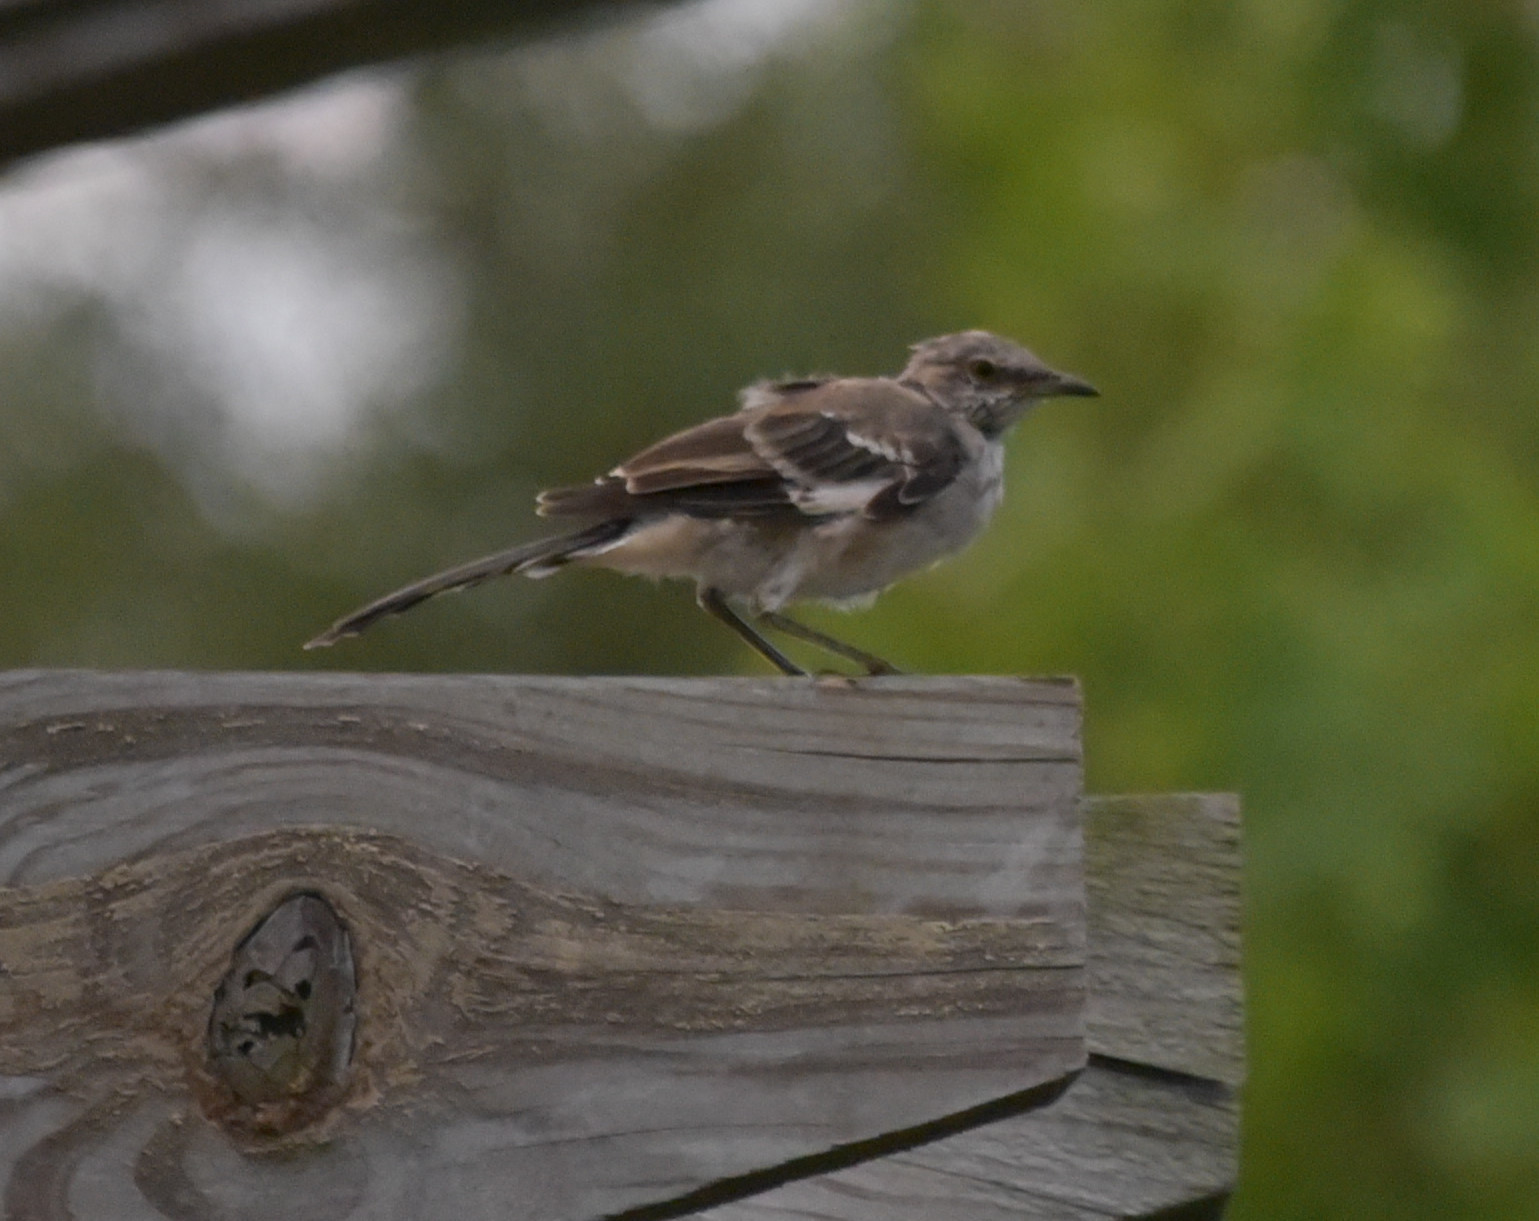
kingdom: Animalia
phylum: Chordata
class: Aves
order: Passeriformes
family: Mimidae
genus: Mimus
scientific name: Mimus polyglottos
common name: Northern mockingbird
